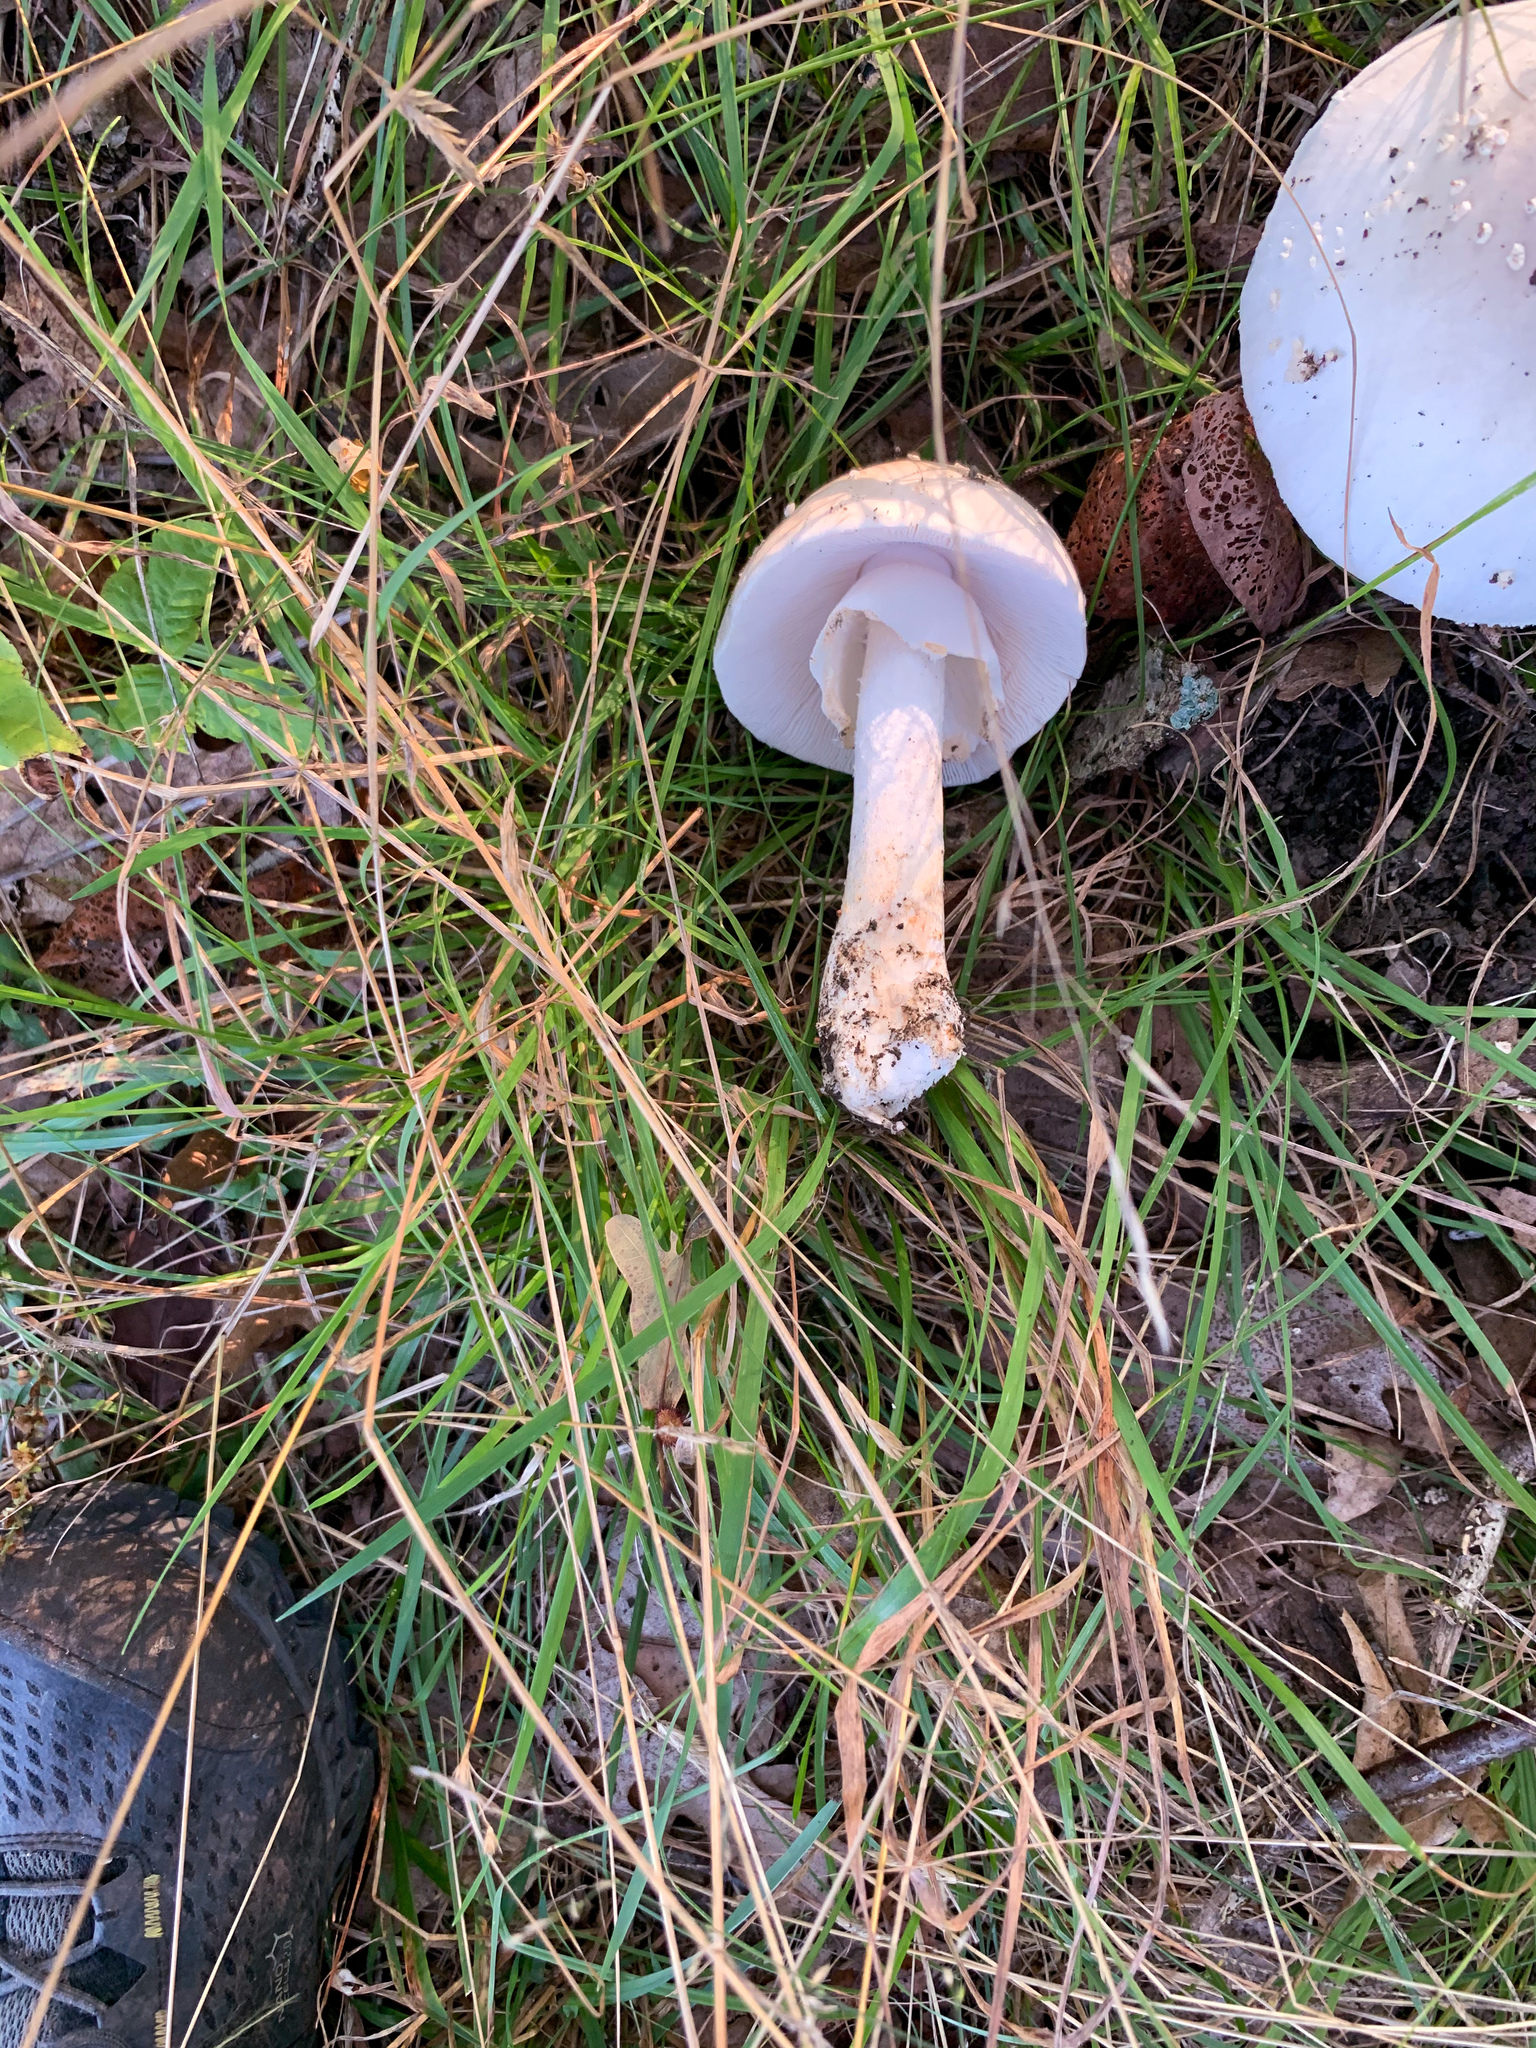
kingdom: Fungi
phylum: Basidiomycota
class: Agaricomycetes
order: Agaricales
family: Amanitaceae
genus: Amanita
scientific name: Amanita canescens
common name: Golden threads lepidella
